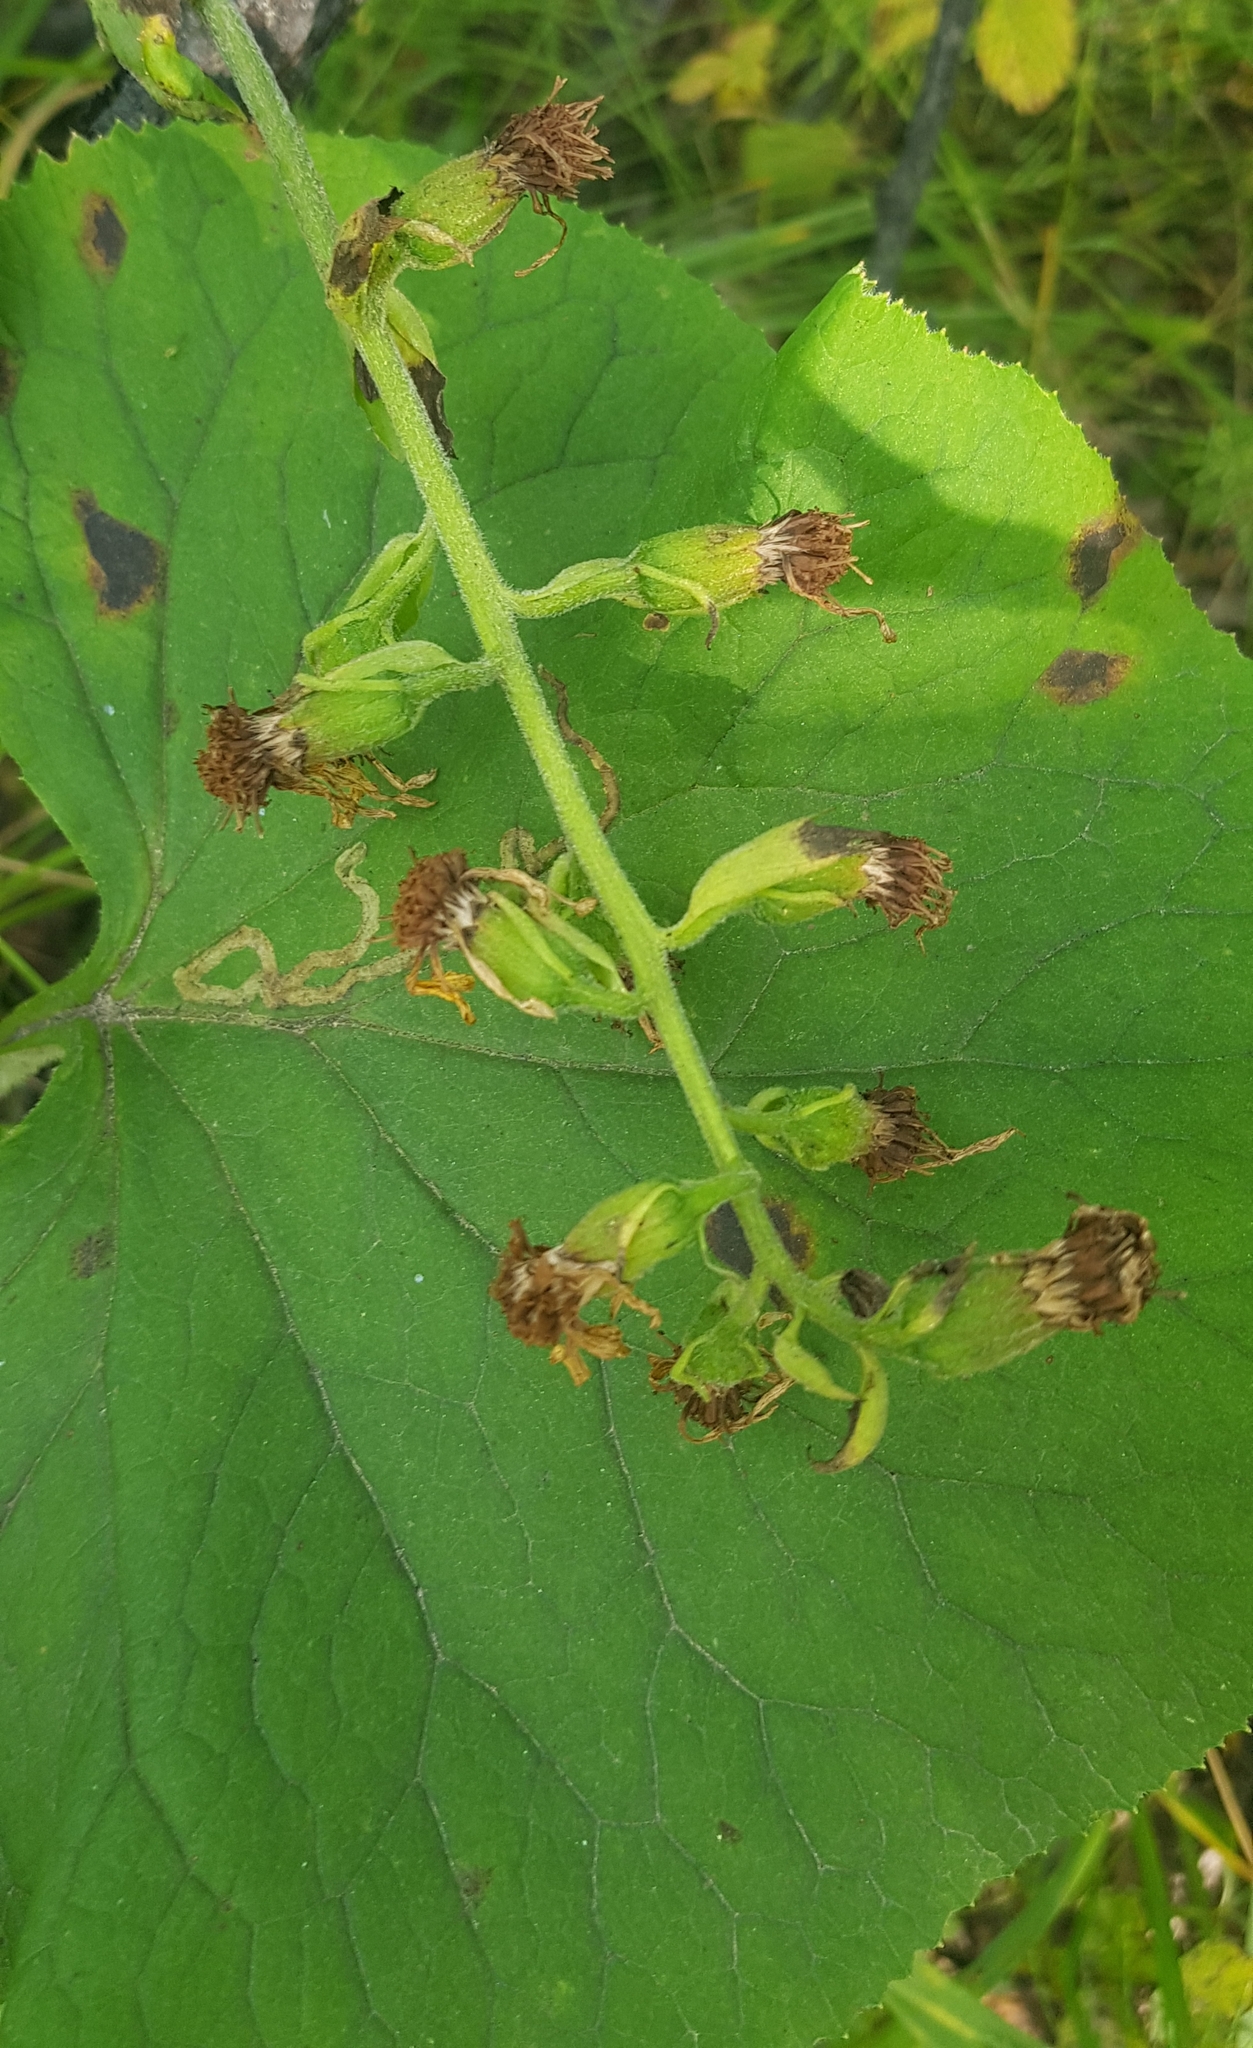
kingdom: Plantae
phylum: Tracheophyta
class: Magnoliopsida
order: Asterales
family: Asteraceae
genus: Ligularia
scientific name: Ligularia sibirica
